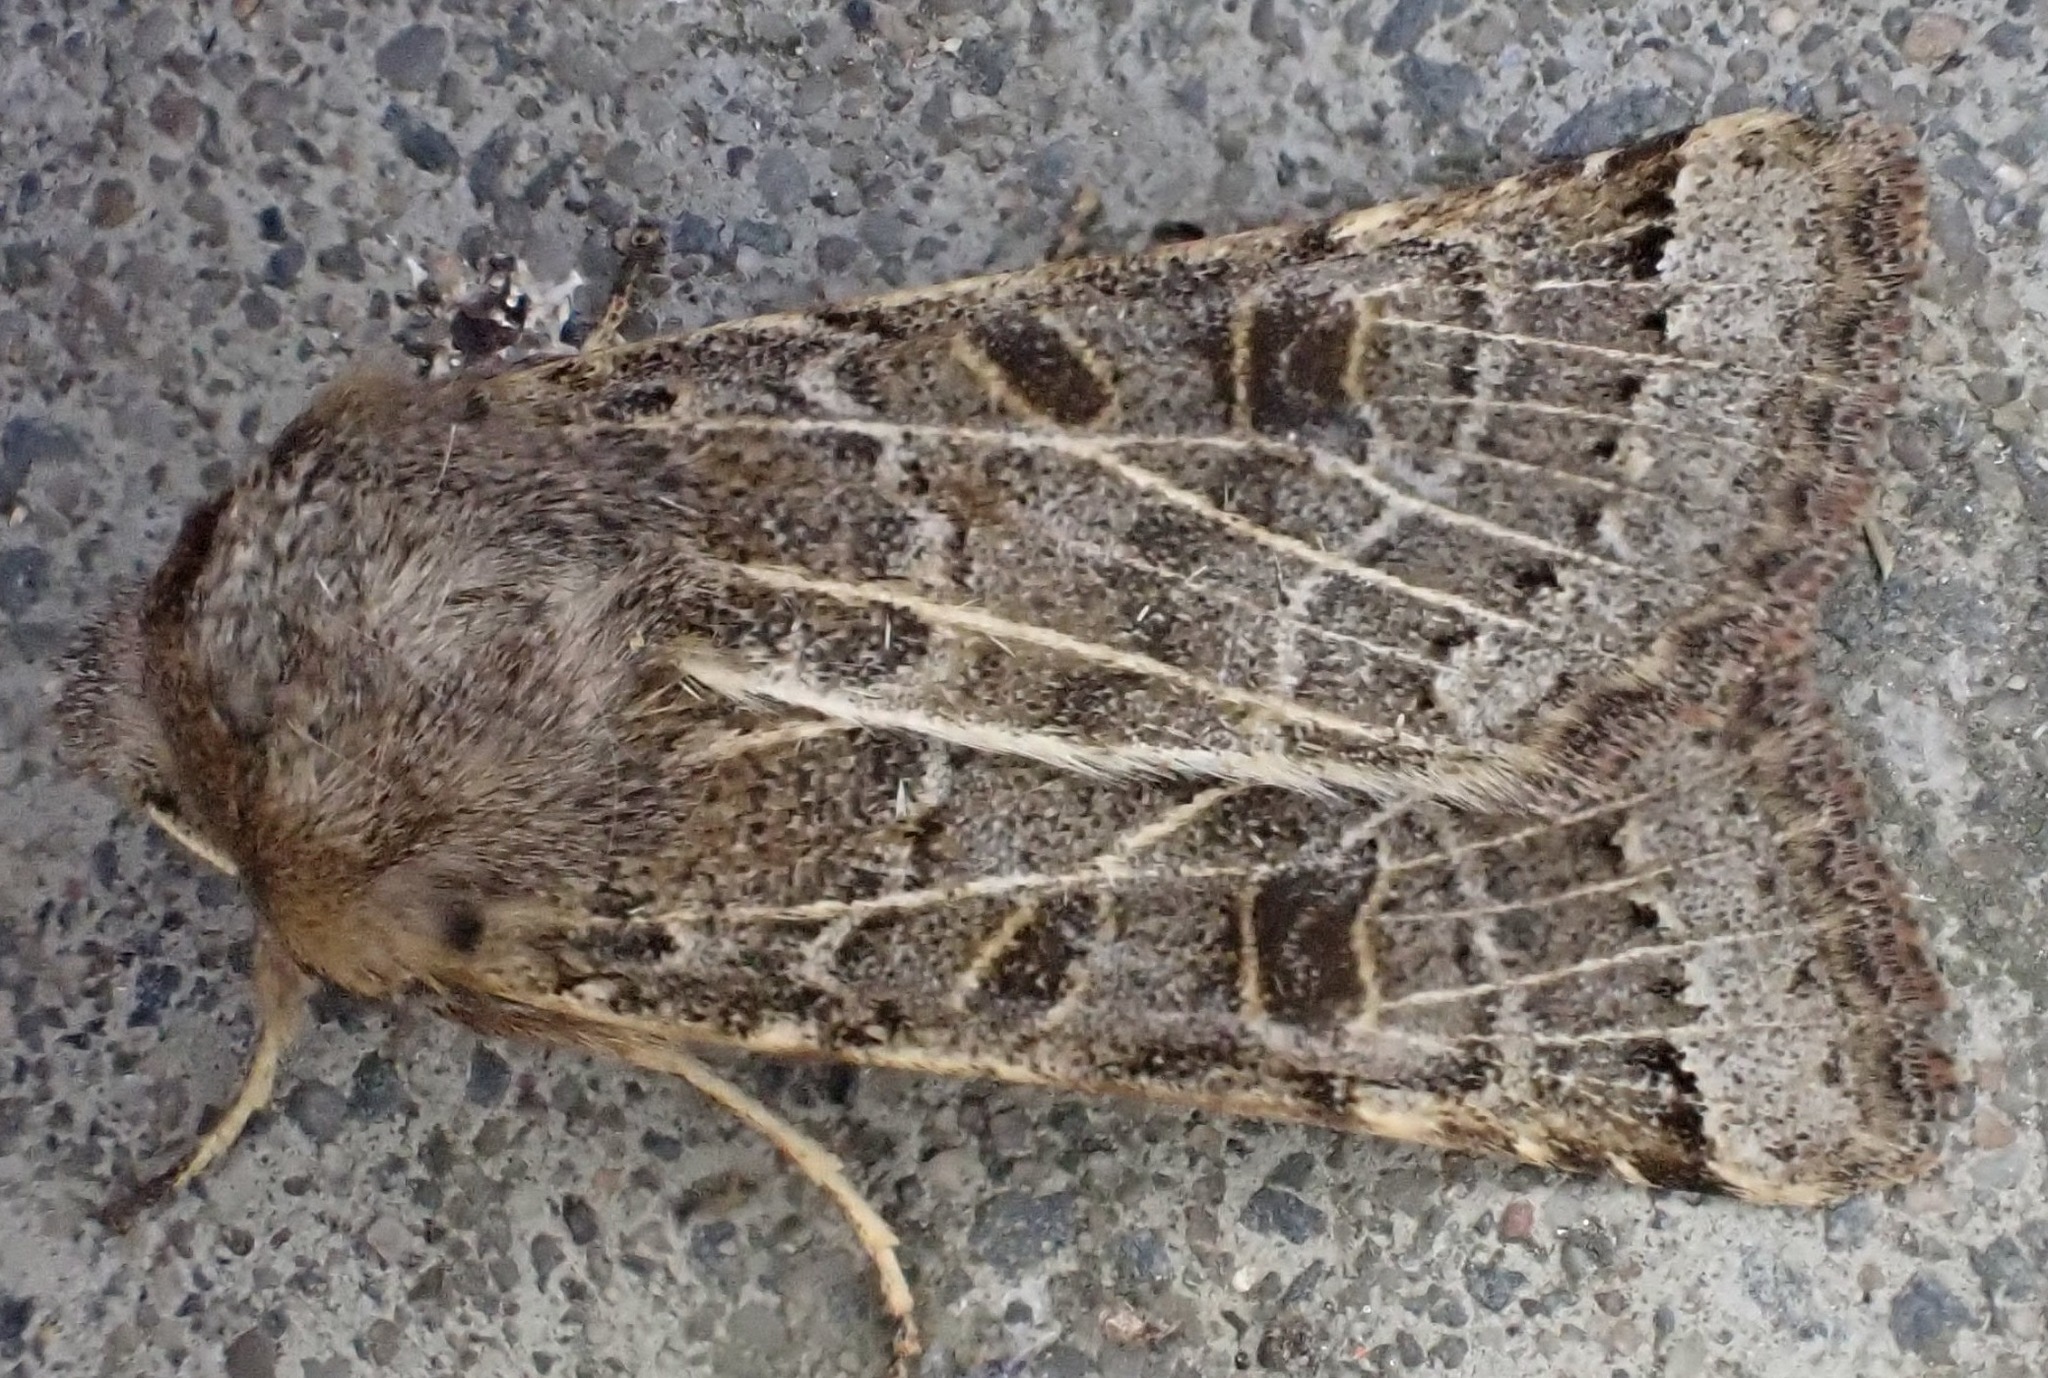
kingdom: Animalia
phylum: Arthropoda
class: Insecta
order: Lepidoptera
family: Noctuidae
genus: Agrochola
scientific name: Agrochola lunosa
